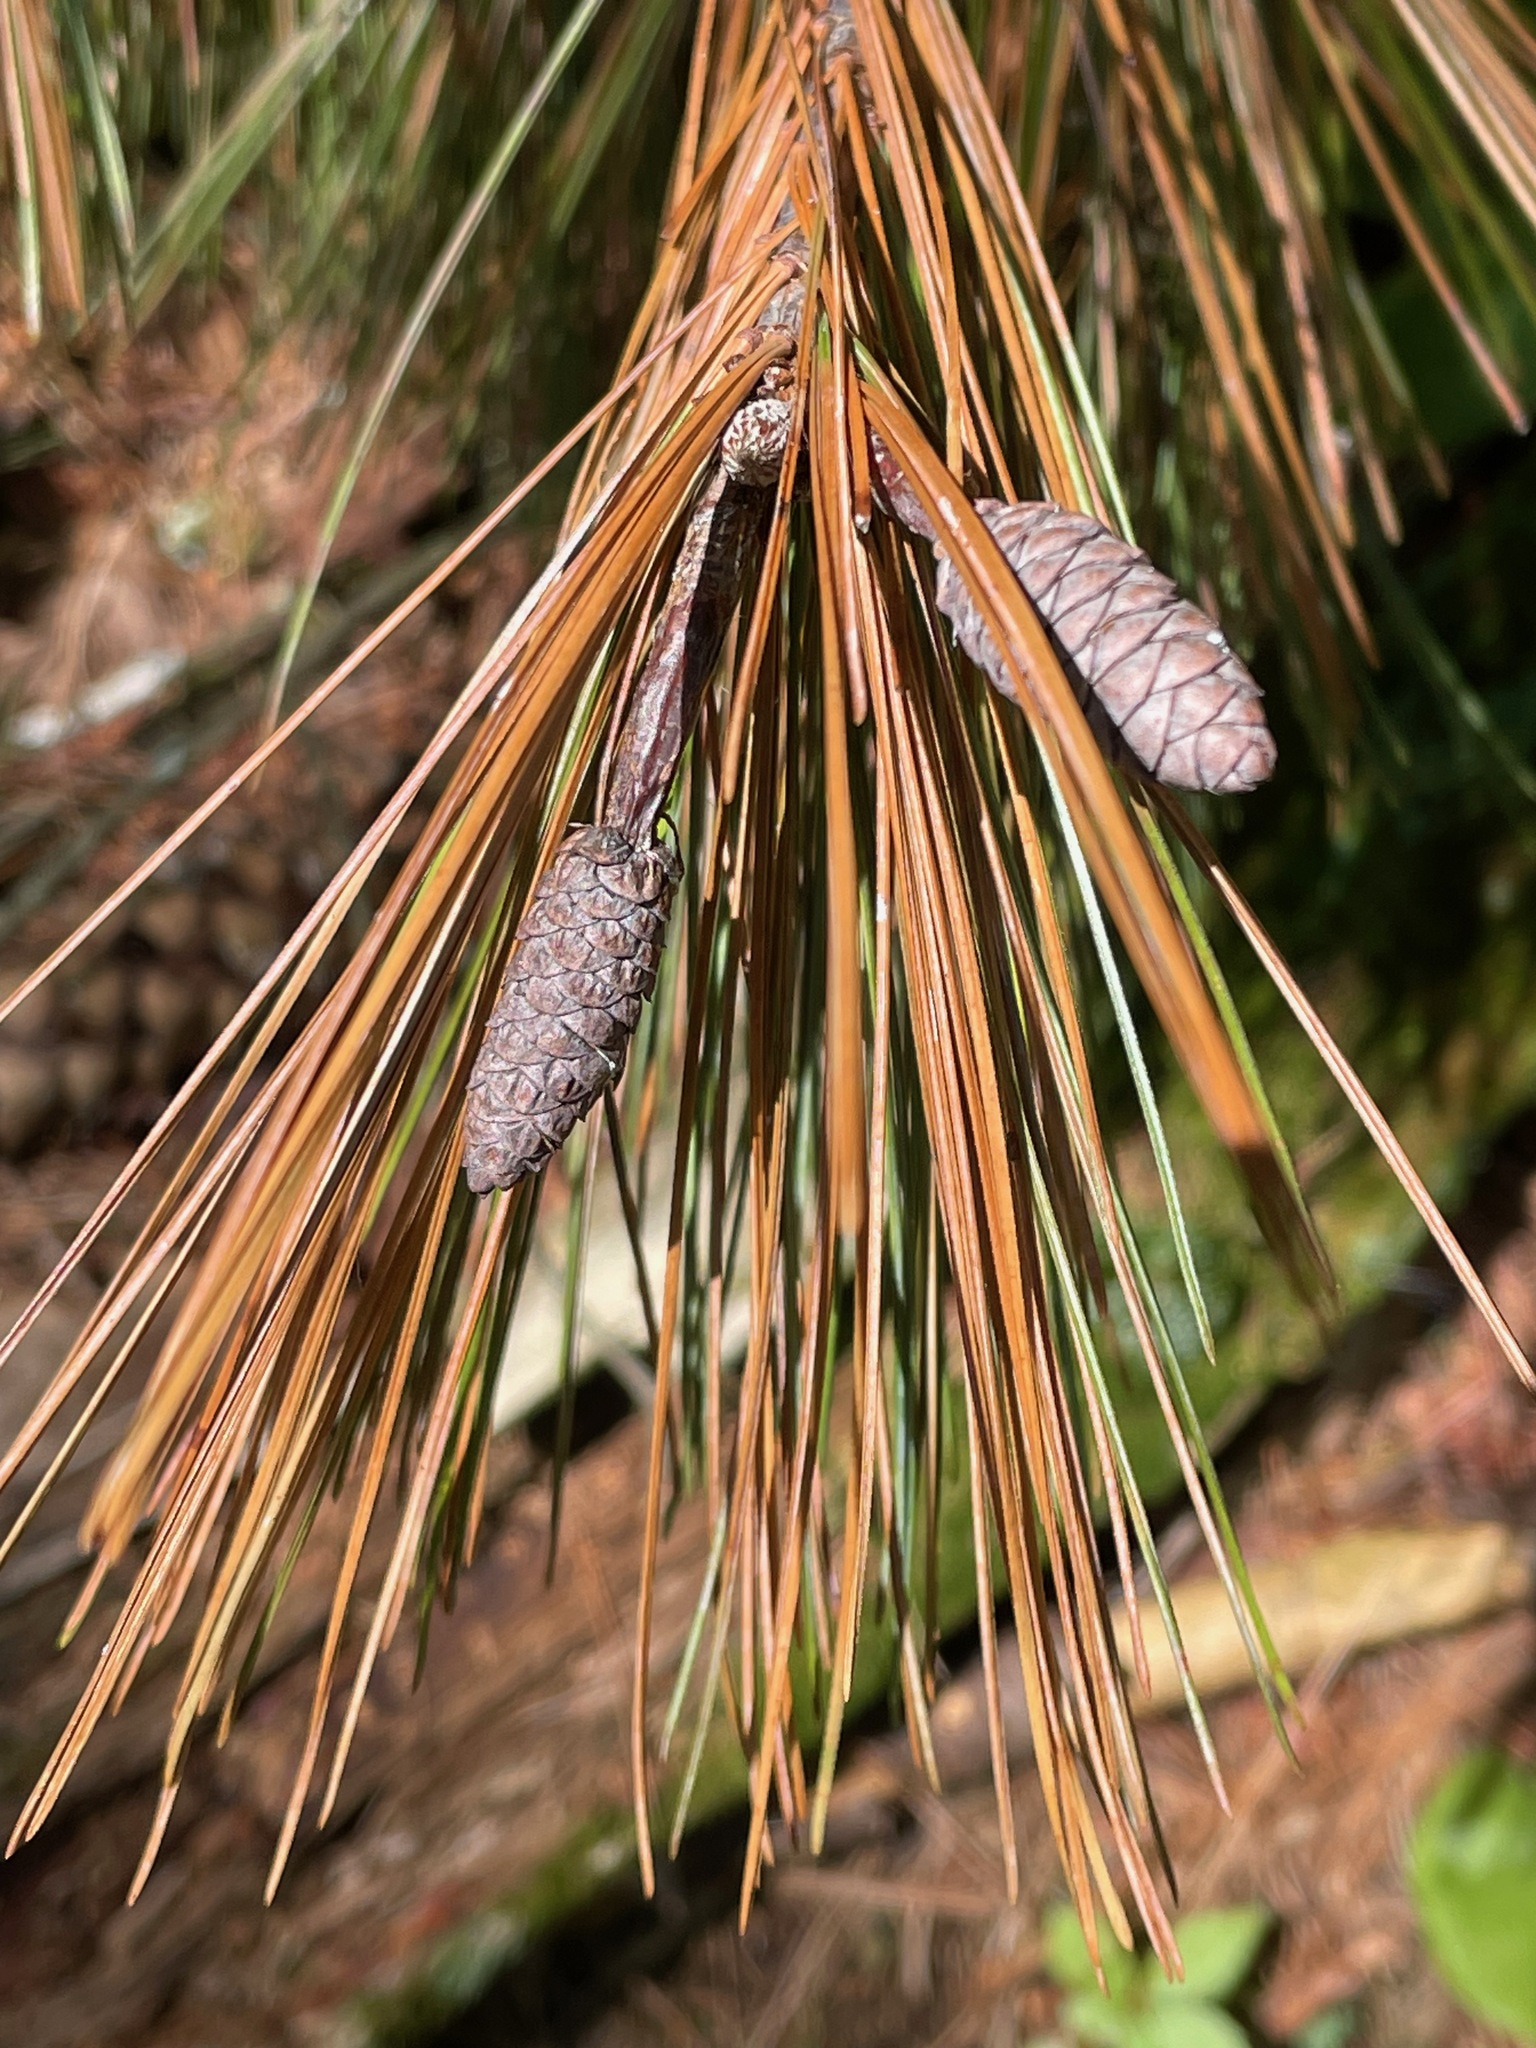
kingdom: Plantae
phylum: Tracheophyta
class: Pinopsida
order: Pinales
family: Pinaceae
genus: Pinus
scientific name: Pinus strobus
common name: Weymouth pine
